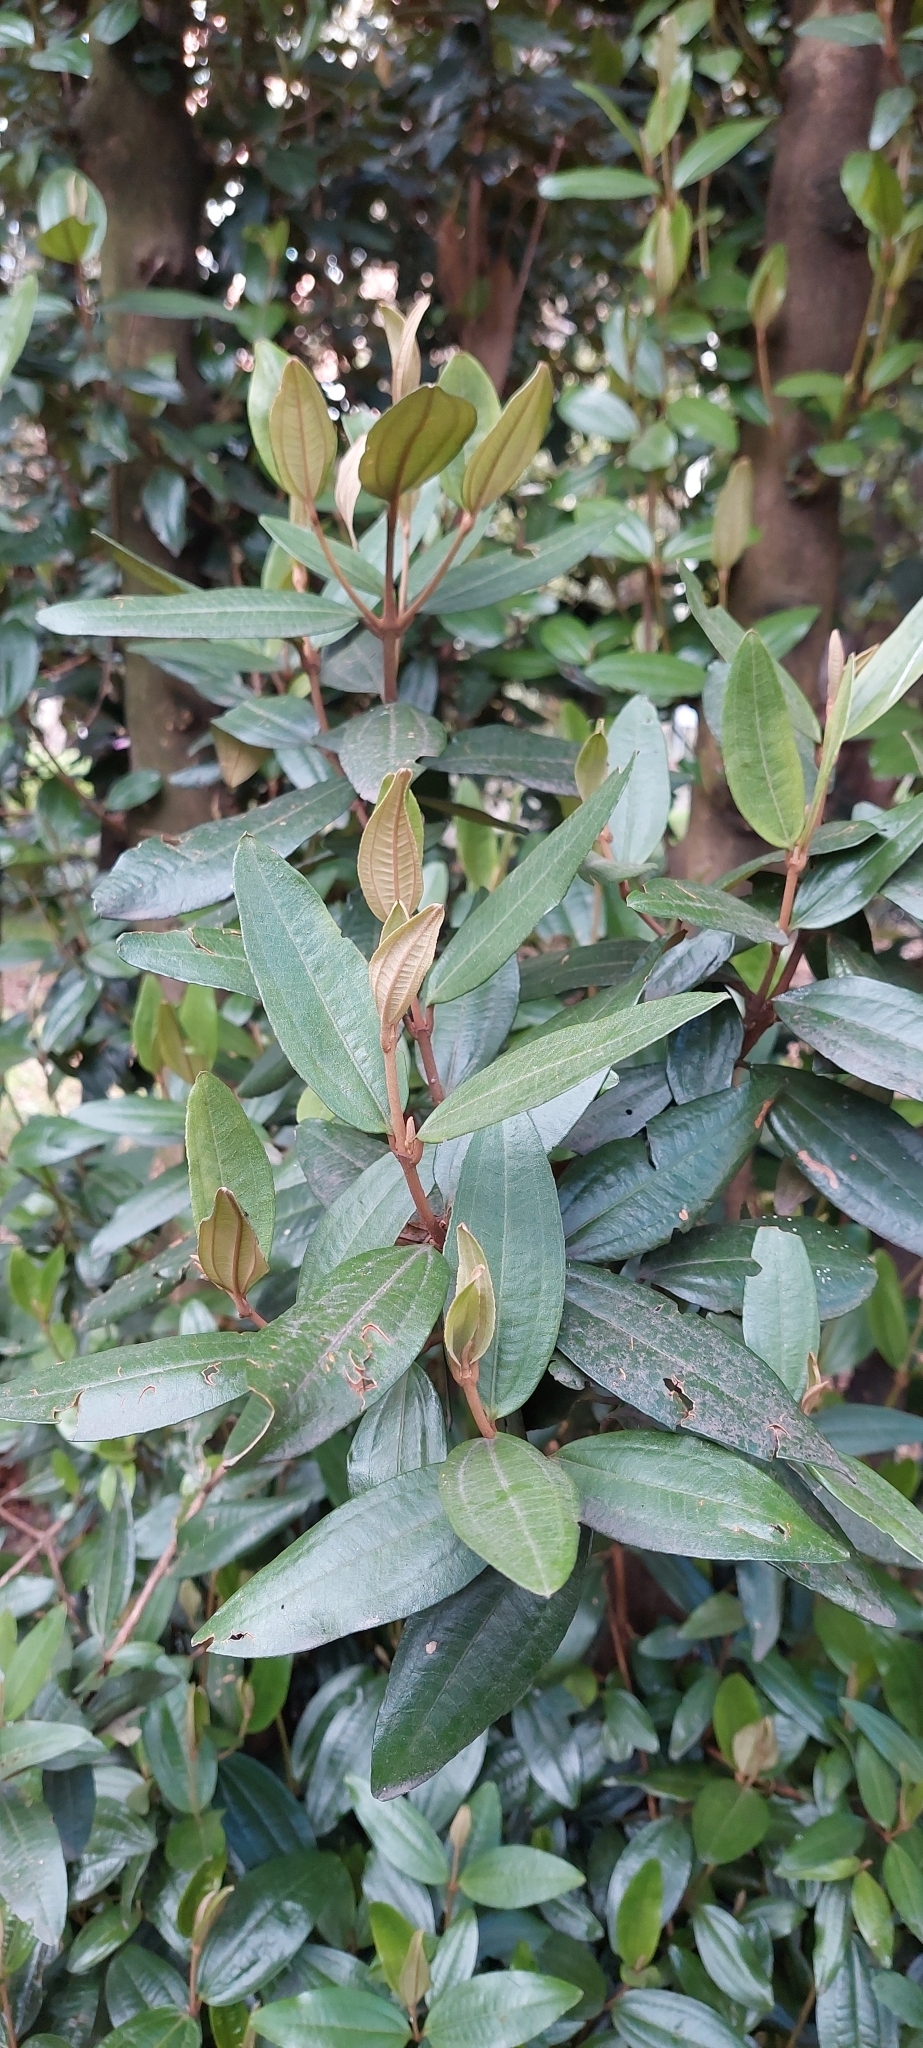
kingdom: Plantae
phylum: Tracheophyta
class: Magnoliopsida
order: Myrtales
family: Melastomataceae
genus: Miconia
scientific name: Miconia squamulosa
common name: Squamulose maya
